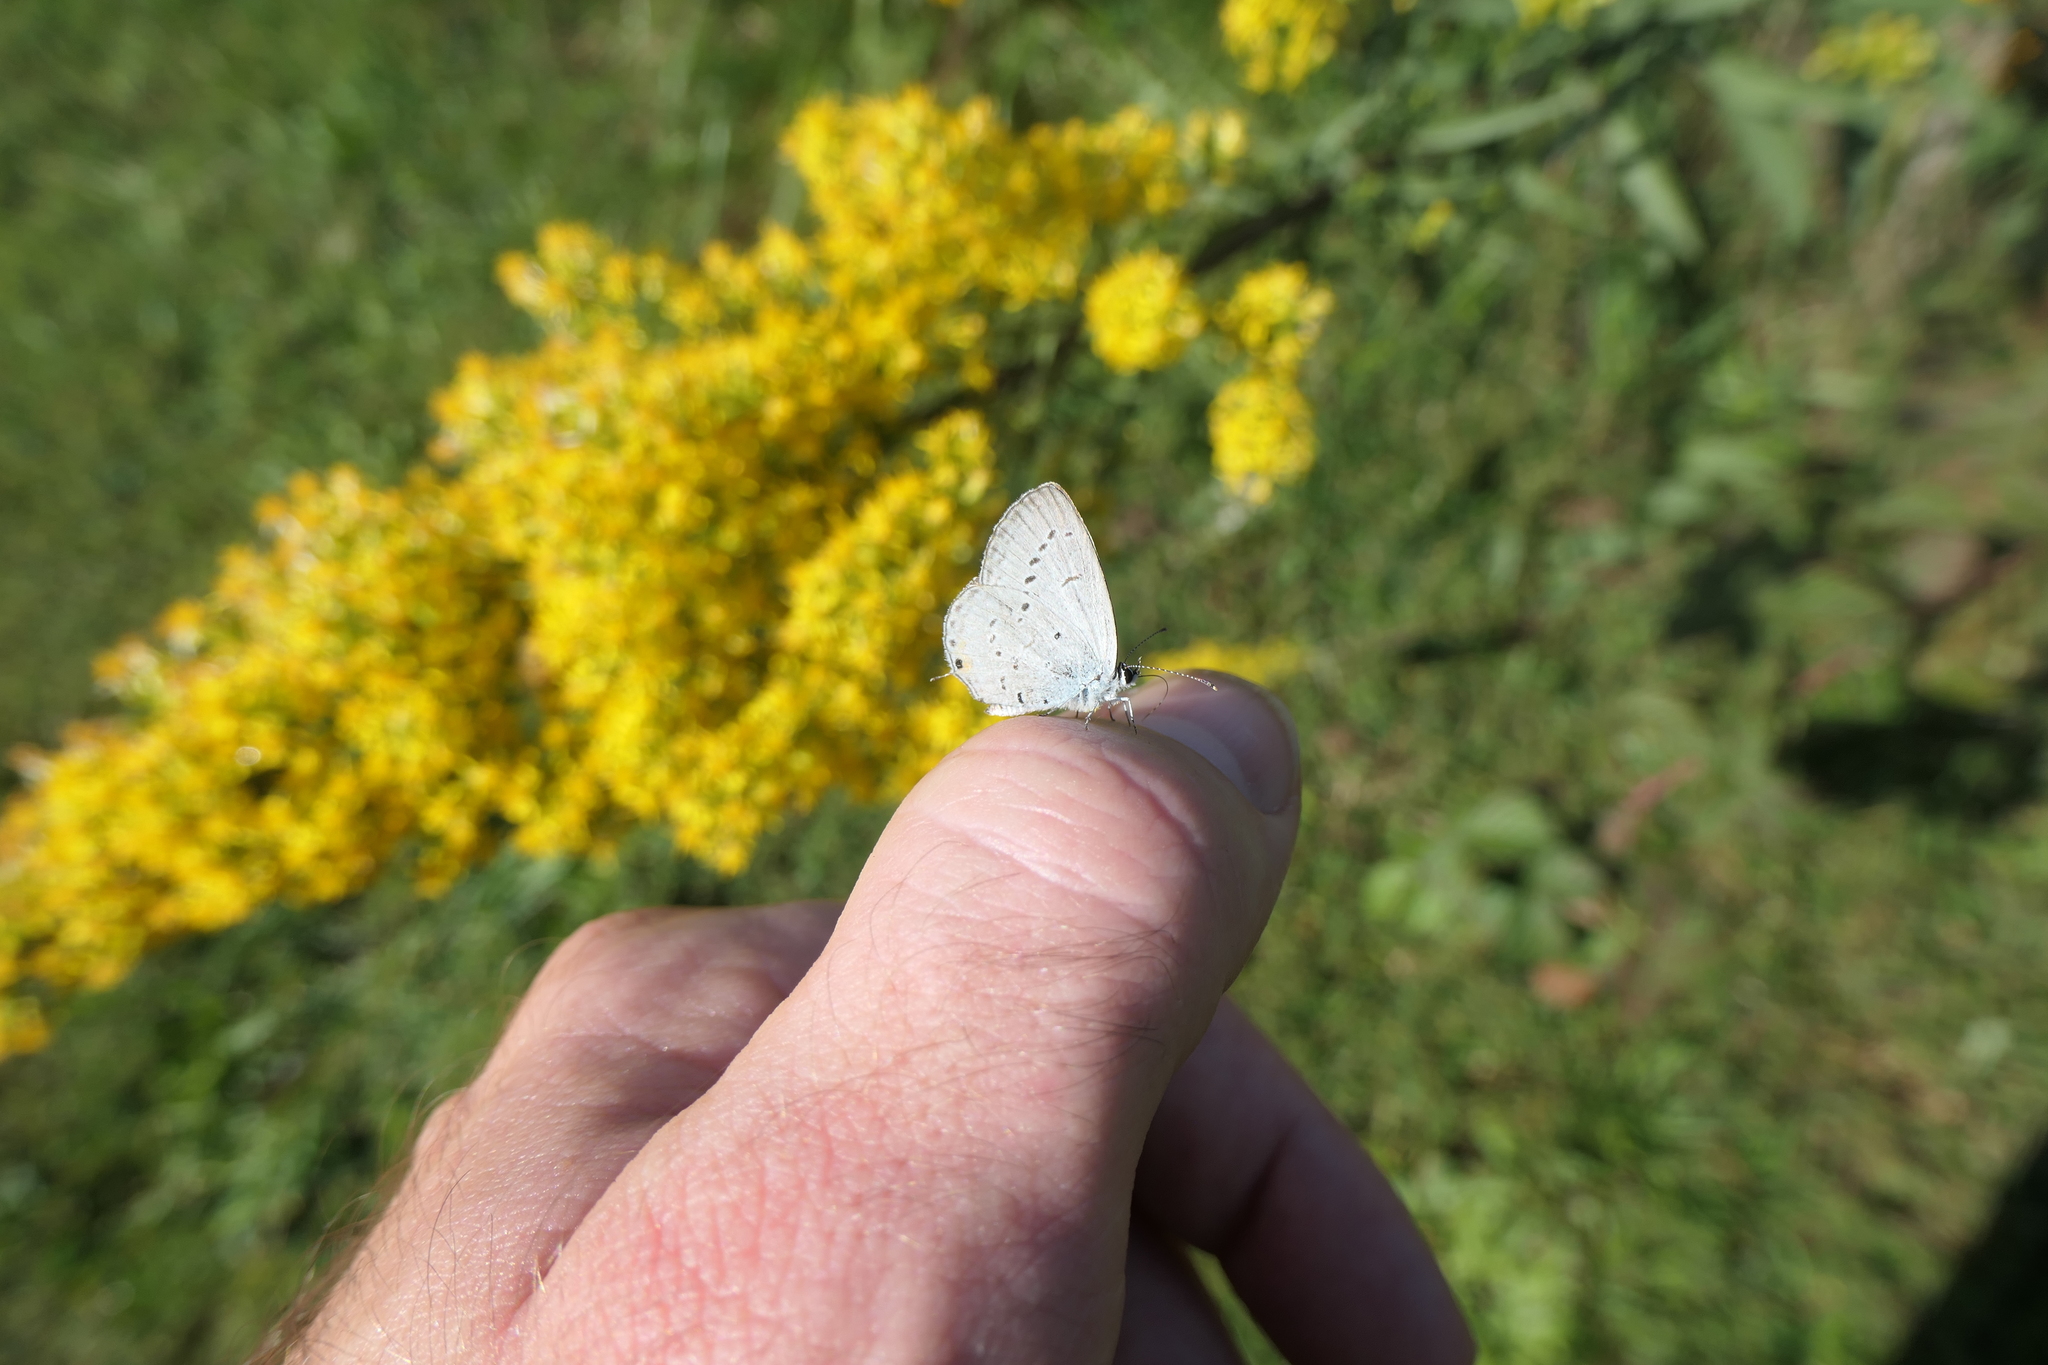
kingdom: Animalia
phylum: Arthropoda
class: Insecta
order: Lepidoptera
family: Lycaenidae
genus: Elkalyce
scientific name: Elkalyce comyntas
